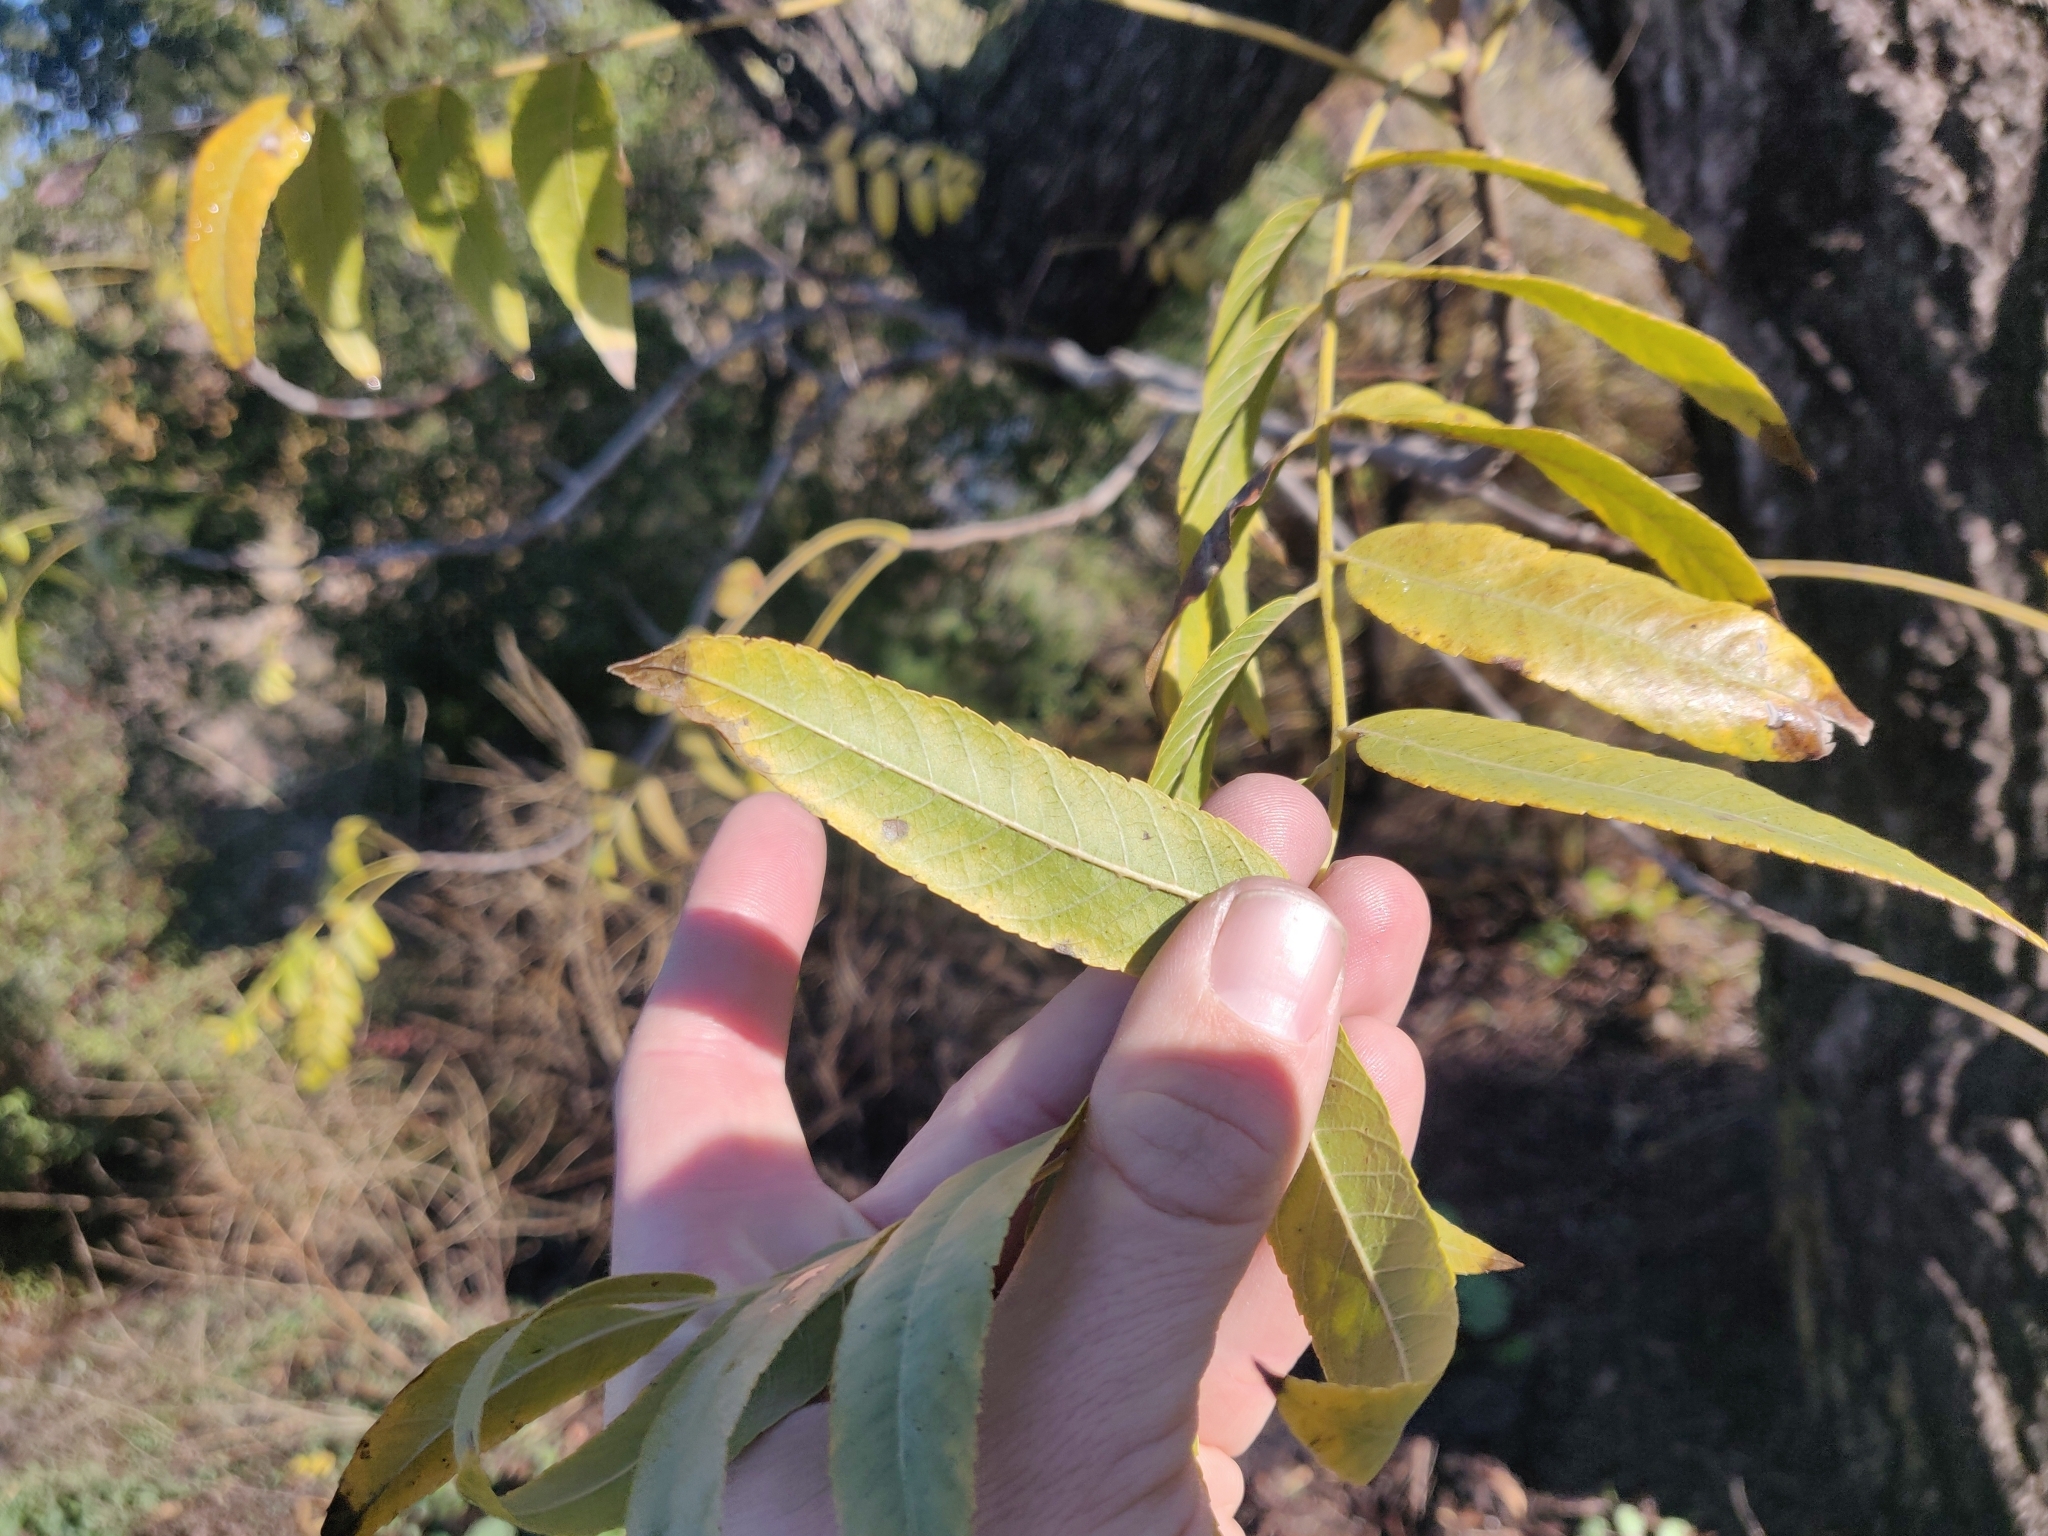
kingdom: Plantae
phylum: Tracheophyta
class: Magnoliopsida
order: Fagales
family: Juglandaceae
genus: Juglans
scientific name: Juglans hindsii
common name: Northern california black walnut
